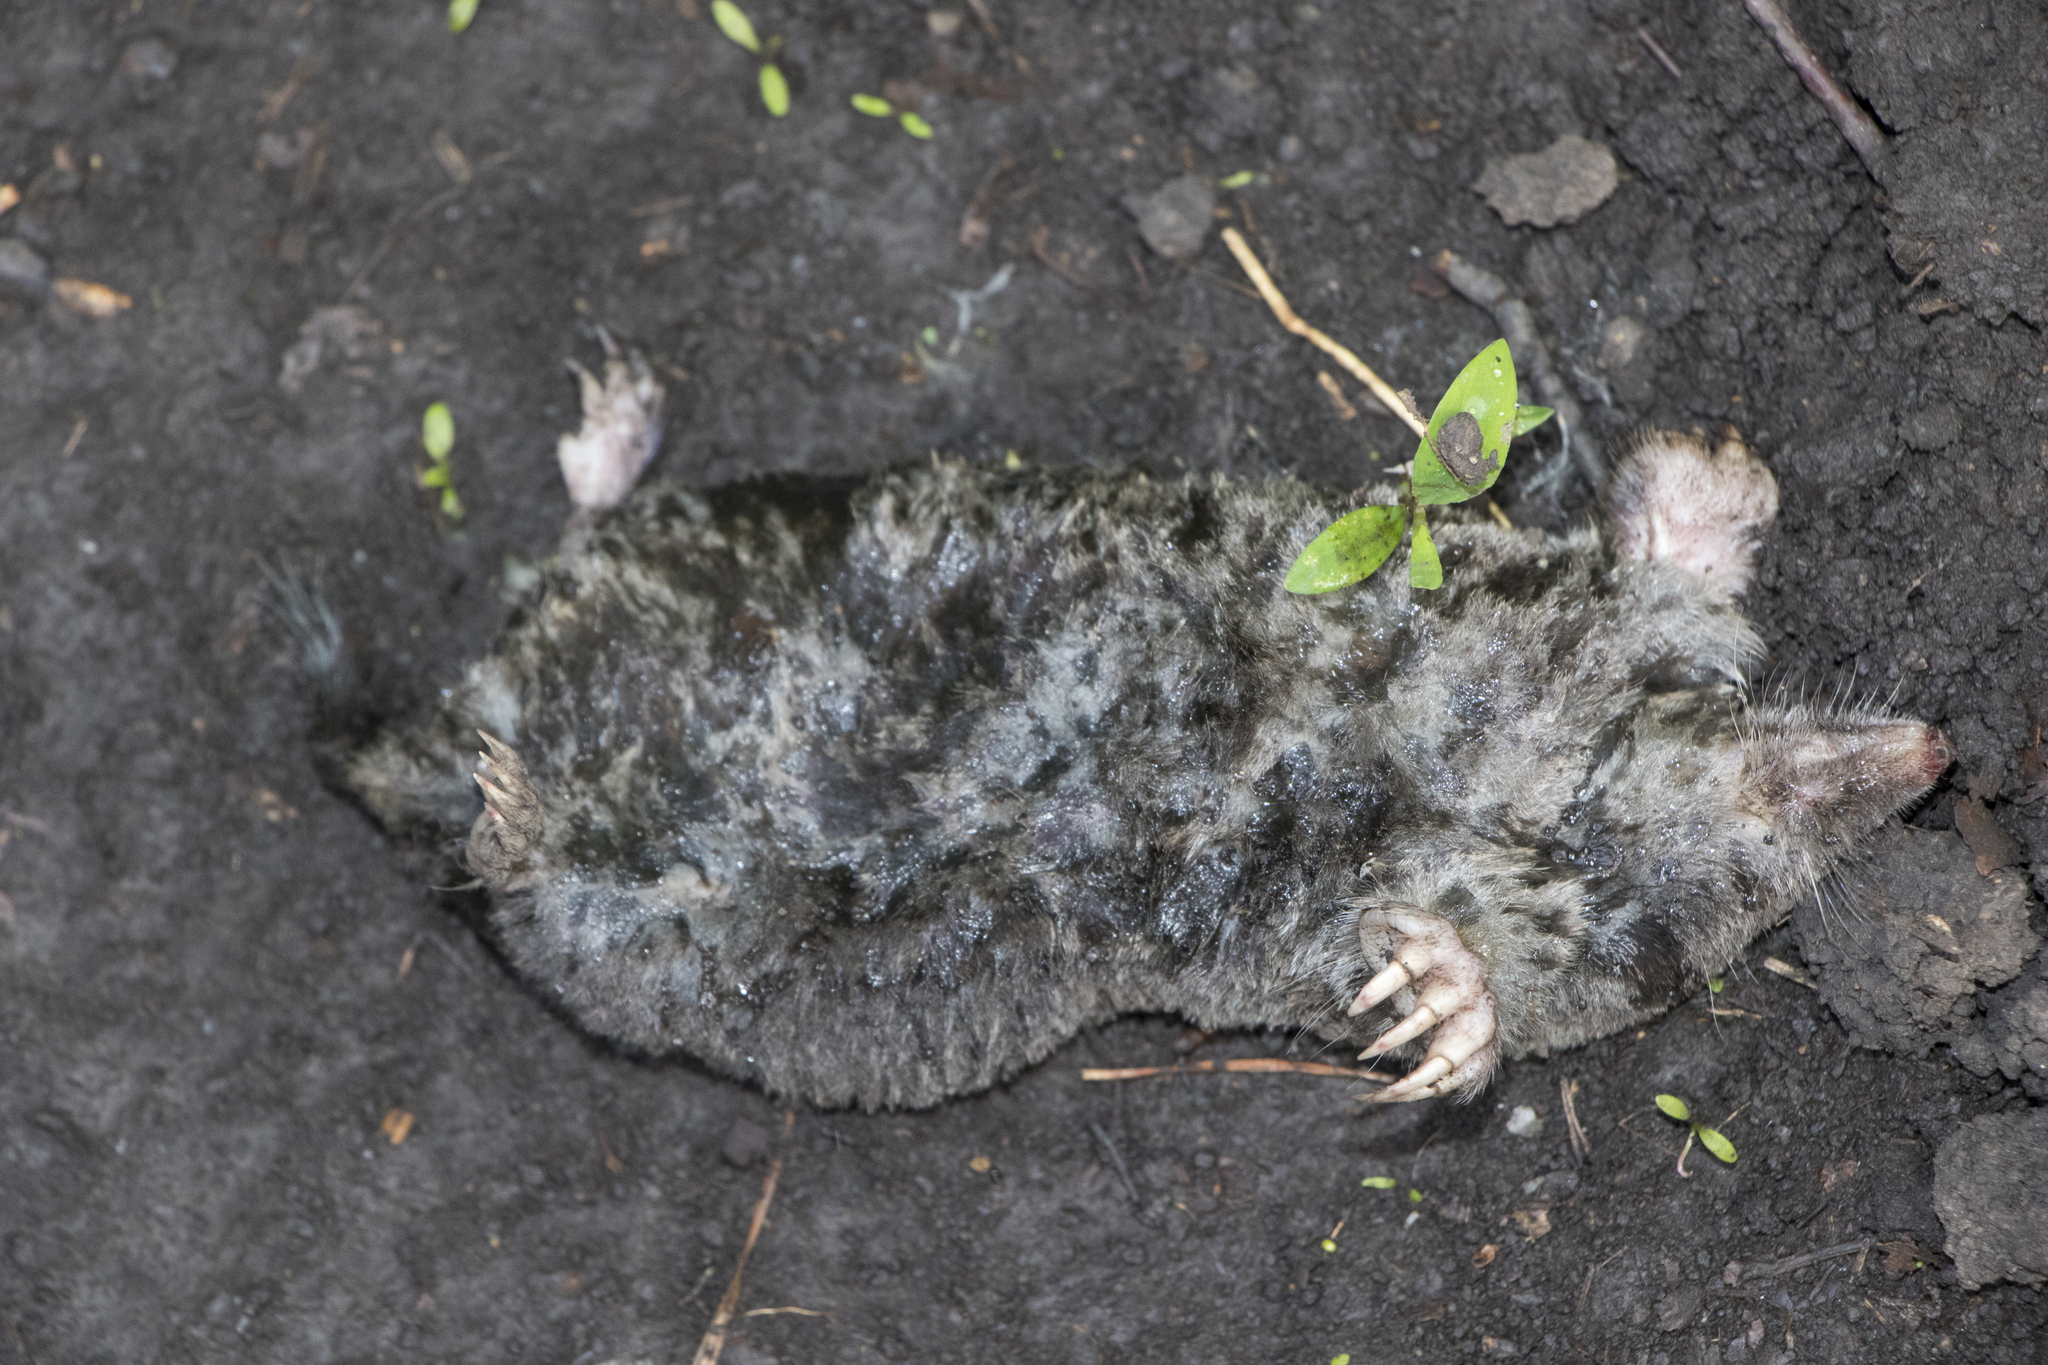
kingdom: Animalia
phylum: Chordata
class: Mammalia
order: Soricomorpha
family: Talpidae
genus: Talpa
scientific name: Talpa europaea
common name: European mole
